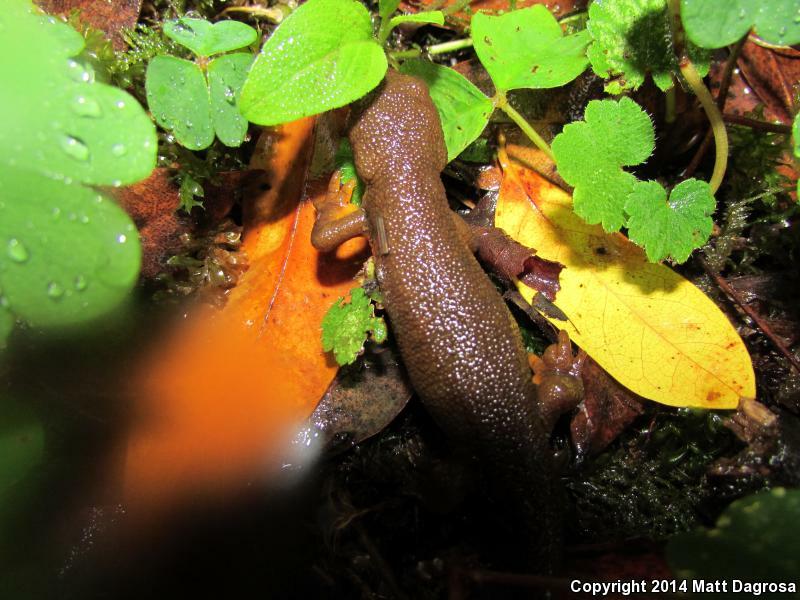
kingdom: Animalia
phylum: Chordata
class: Amphibia
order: Caudata
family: Salamandridae
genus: Taricha
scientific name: Taricha granulosa
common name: Roughskin newt
